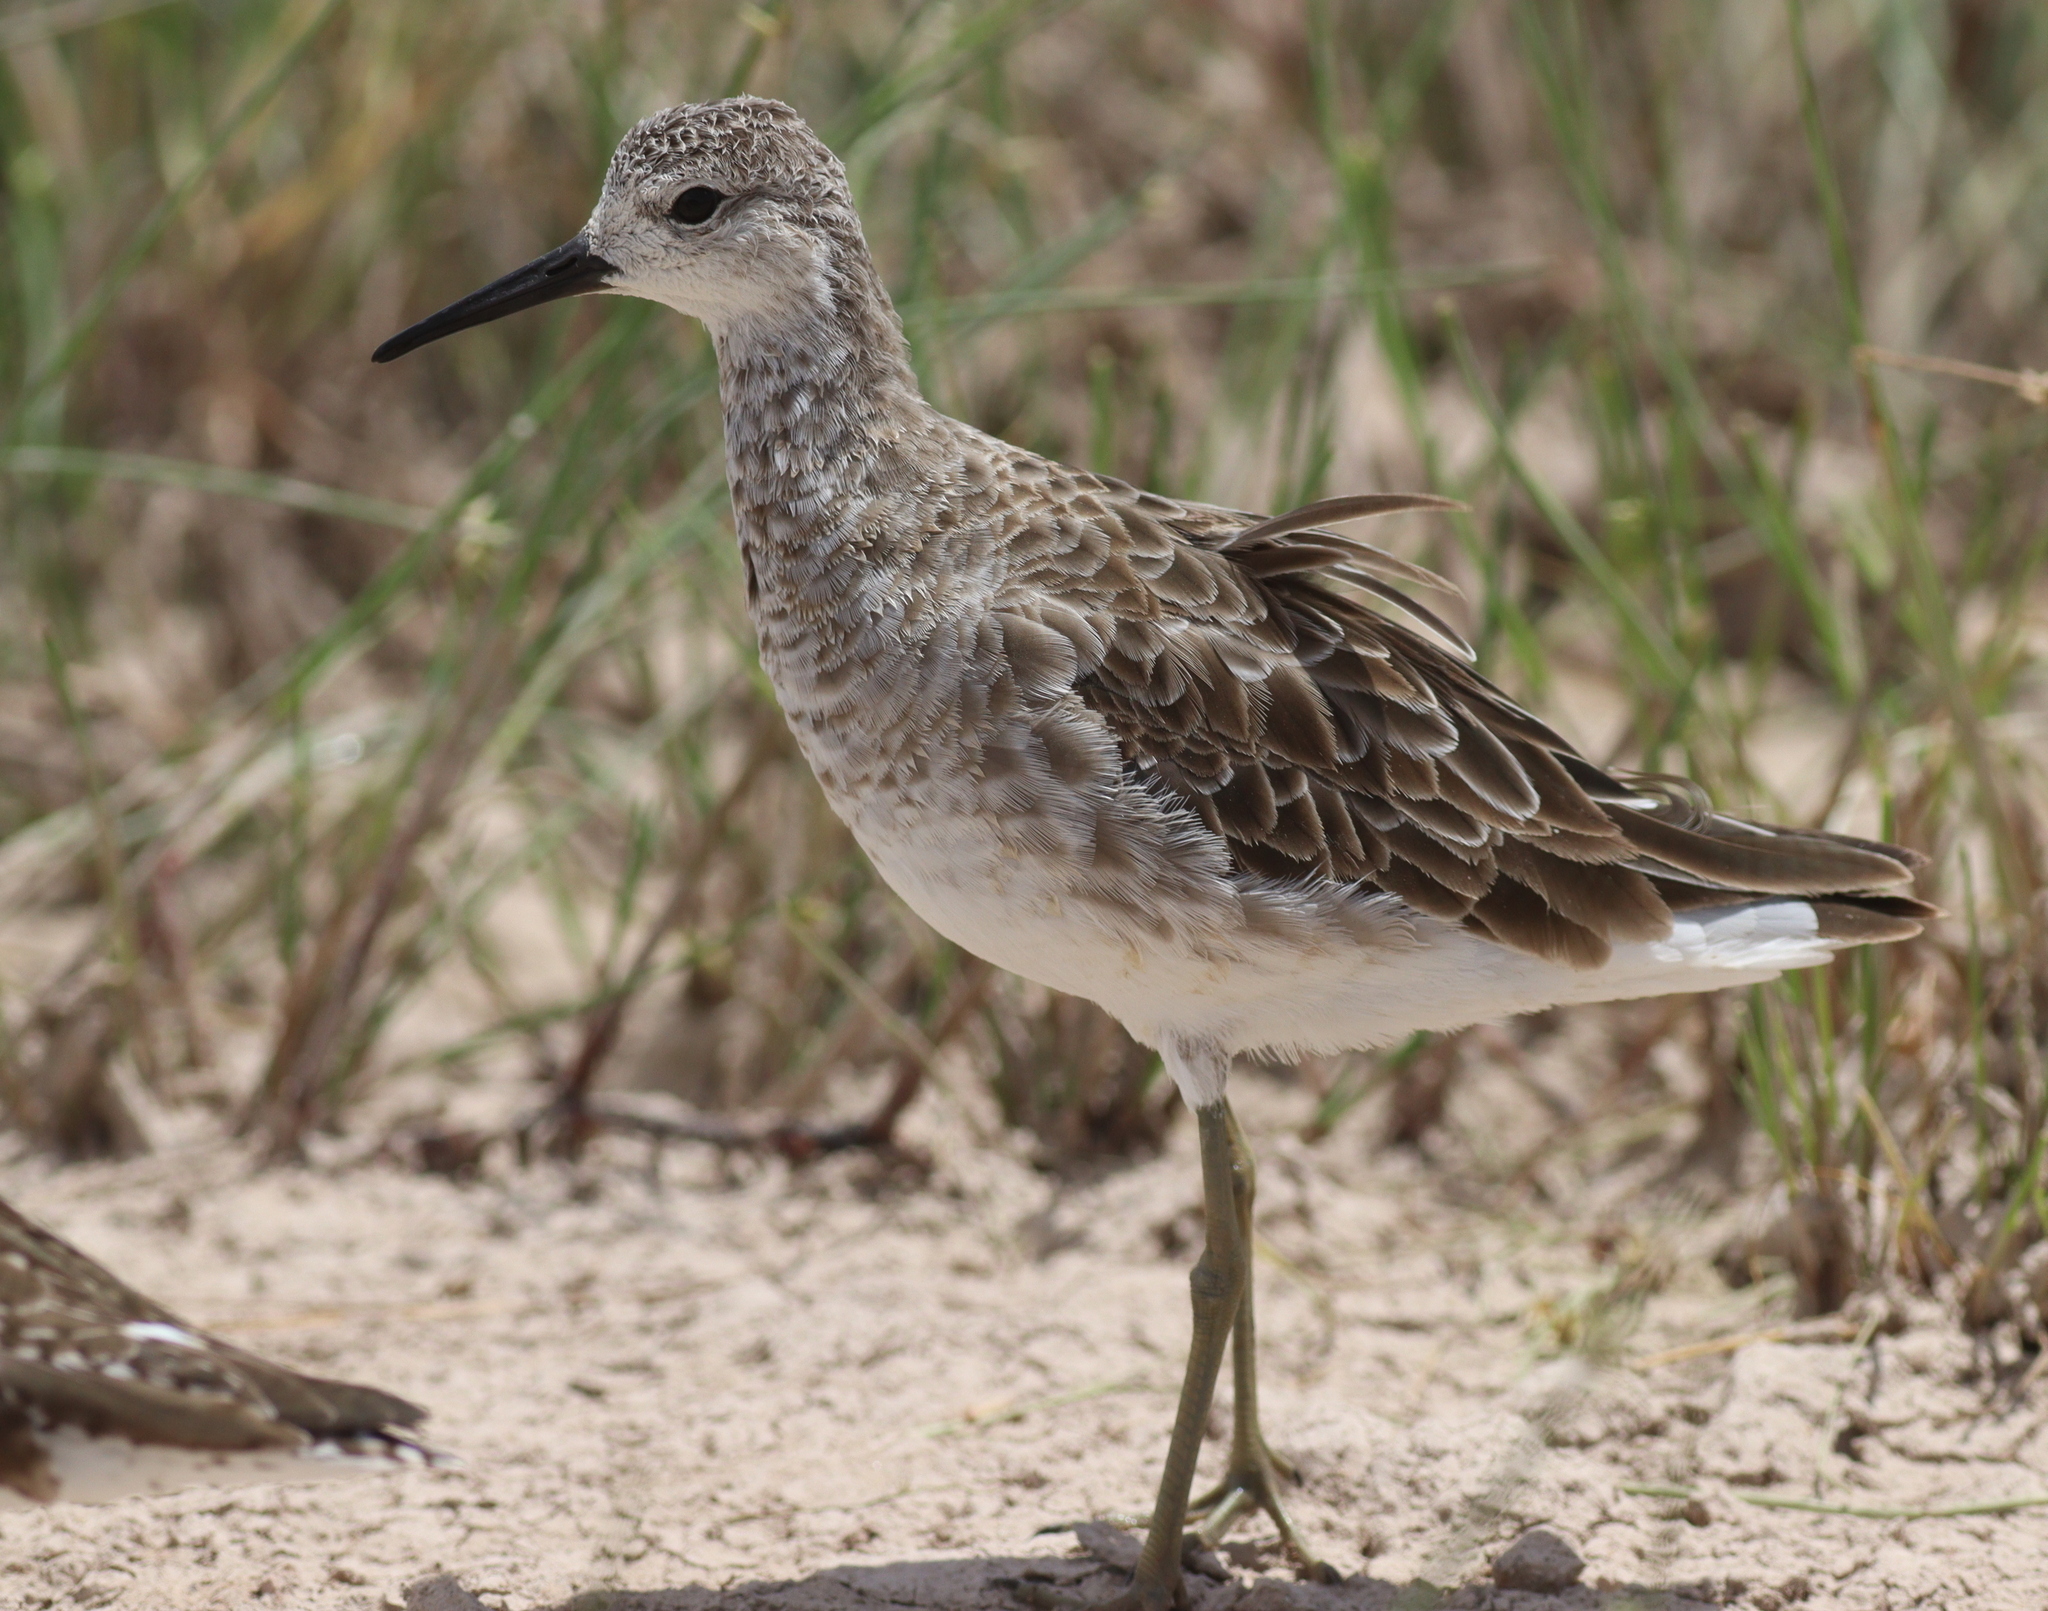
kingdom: Animalia
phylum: Chordata
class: Aves
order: Charadriiformes
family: Scolopacidae
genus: Calidris
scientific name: Calidris pugnax
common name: Ruff
